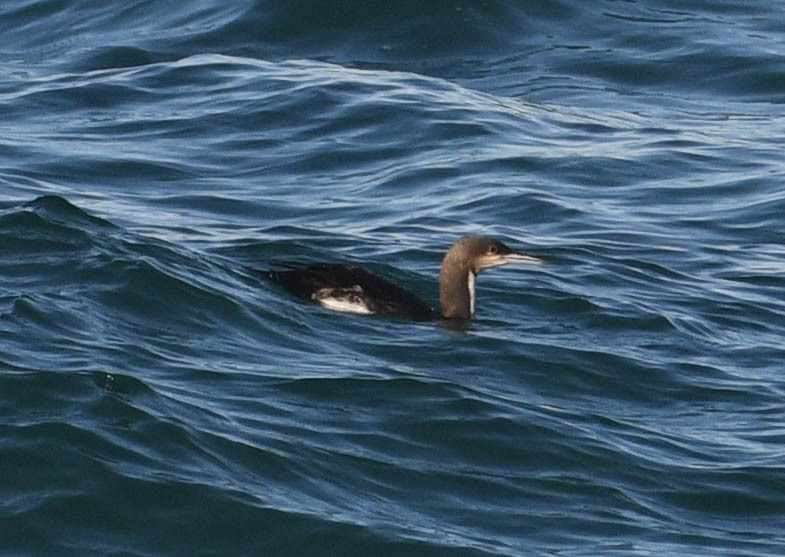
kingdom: Animalia
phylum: Chordata
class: Aves
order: Gaviiformes
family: Gaviidae
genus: Gavia
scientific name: Gavia pacifica
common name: Pacific loon
